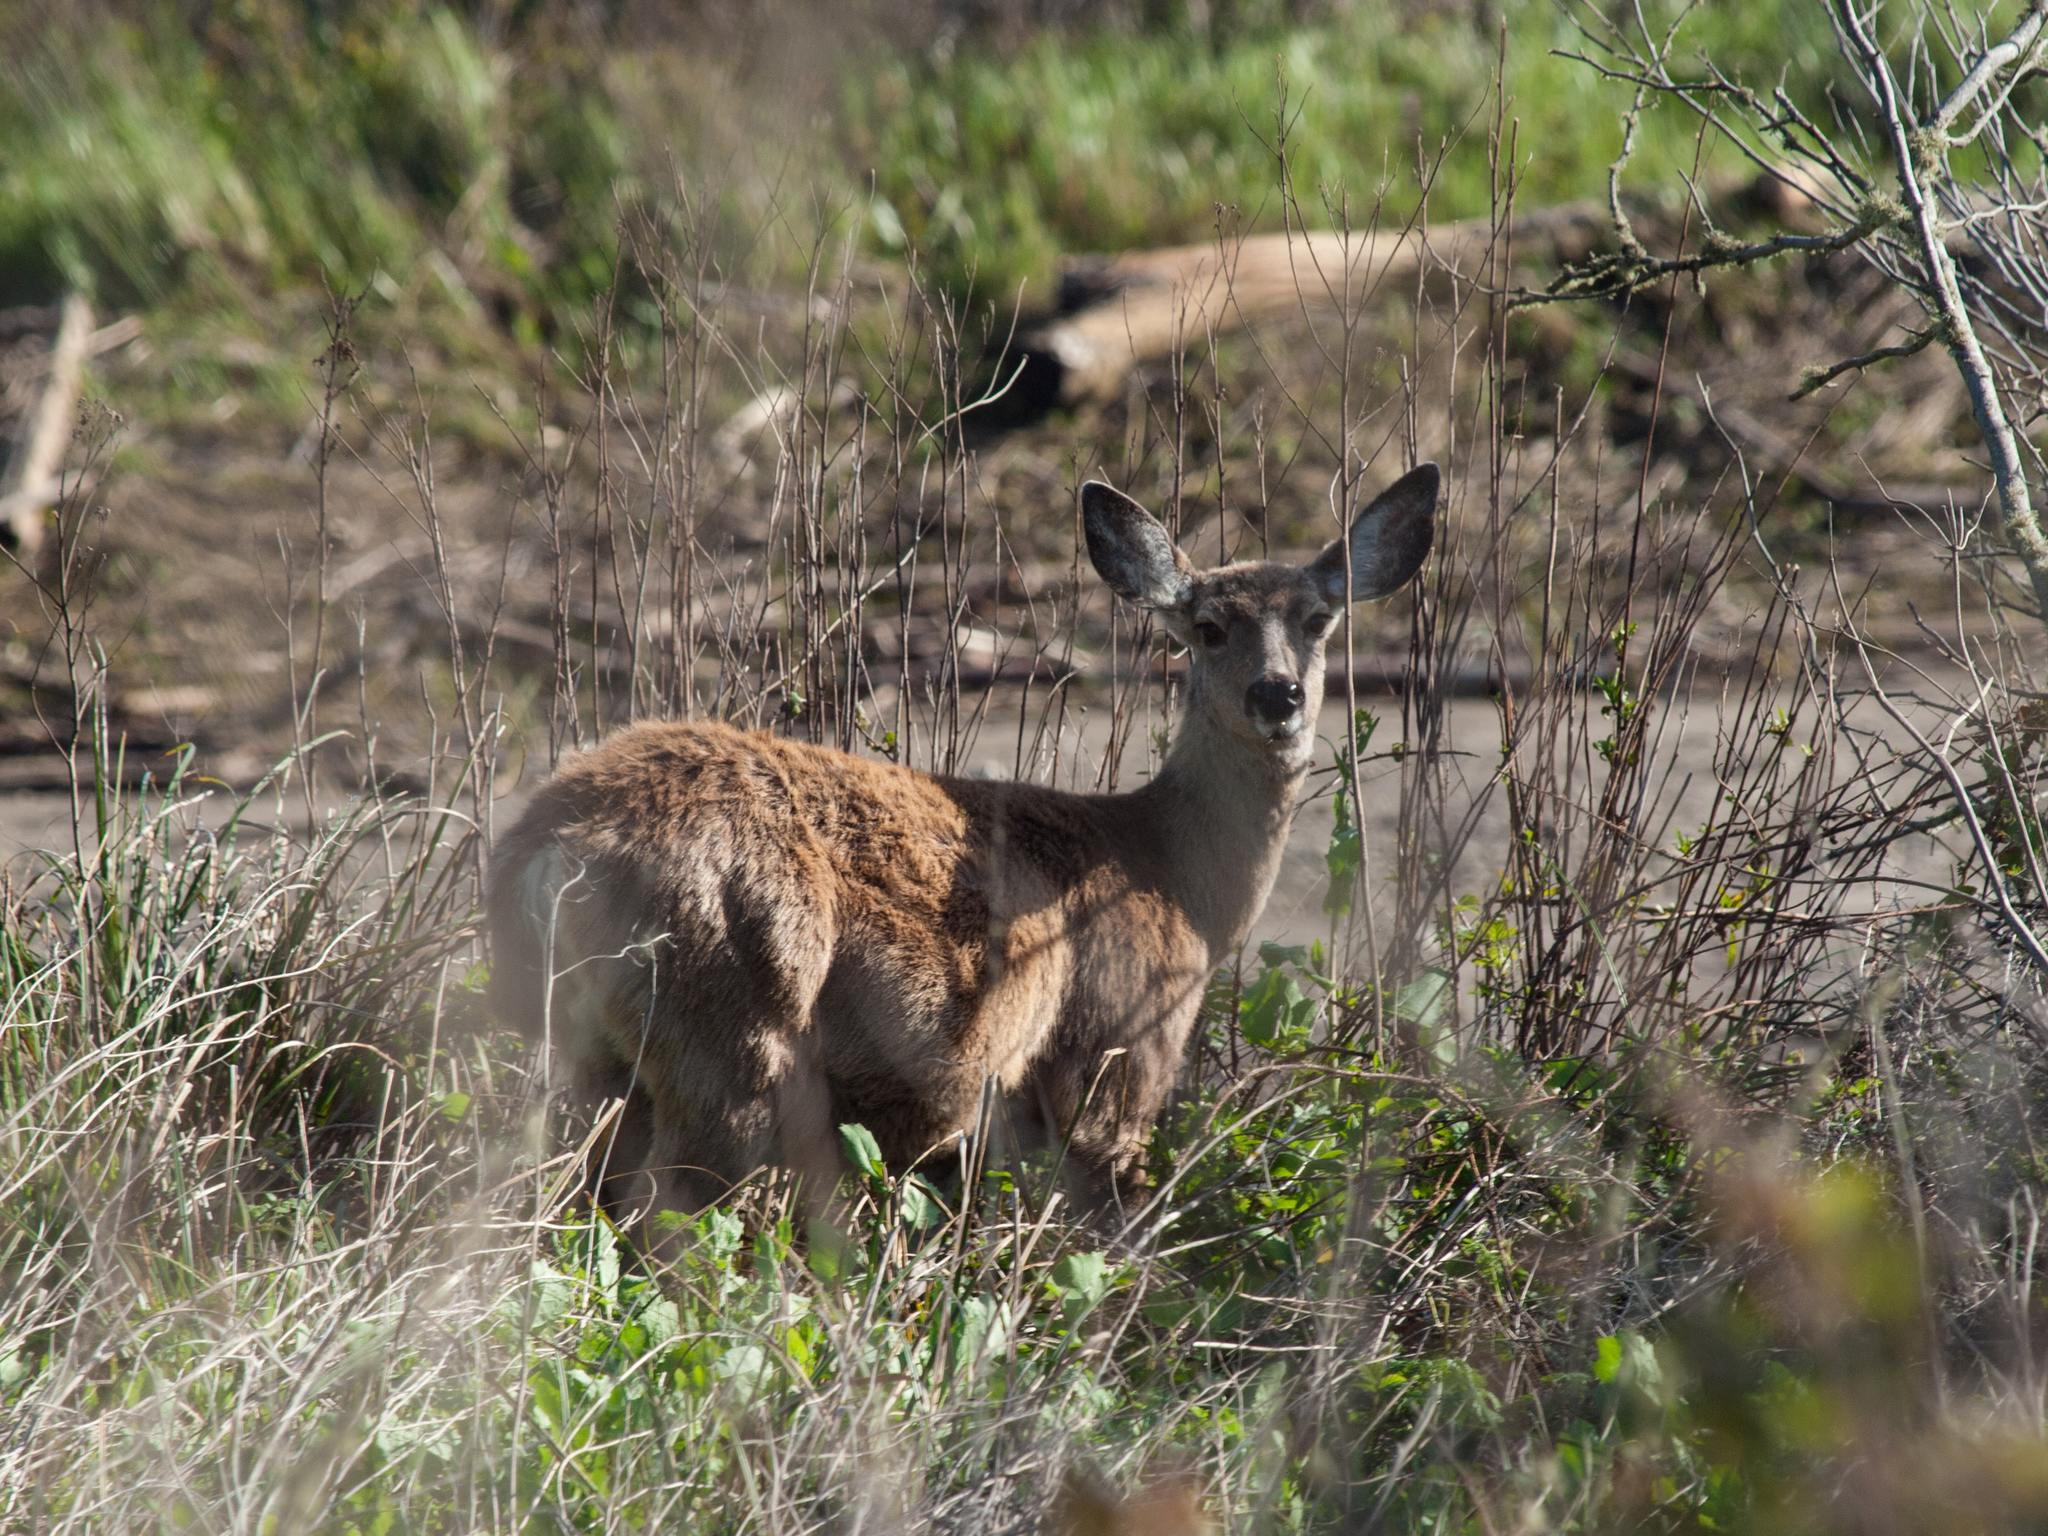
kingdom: Animalia
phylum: Chordata
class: Mammalia
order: Artiodactyla
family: Cervidae
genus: Odocoileus
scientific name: Odocoileus hemionus
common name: Mule deer
